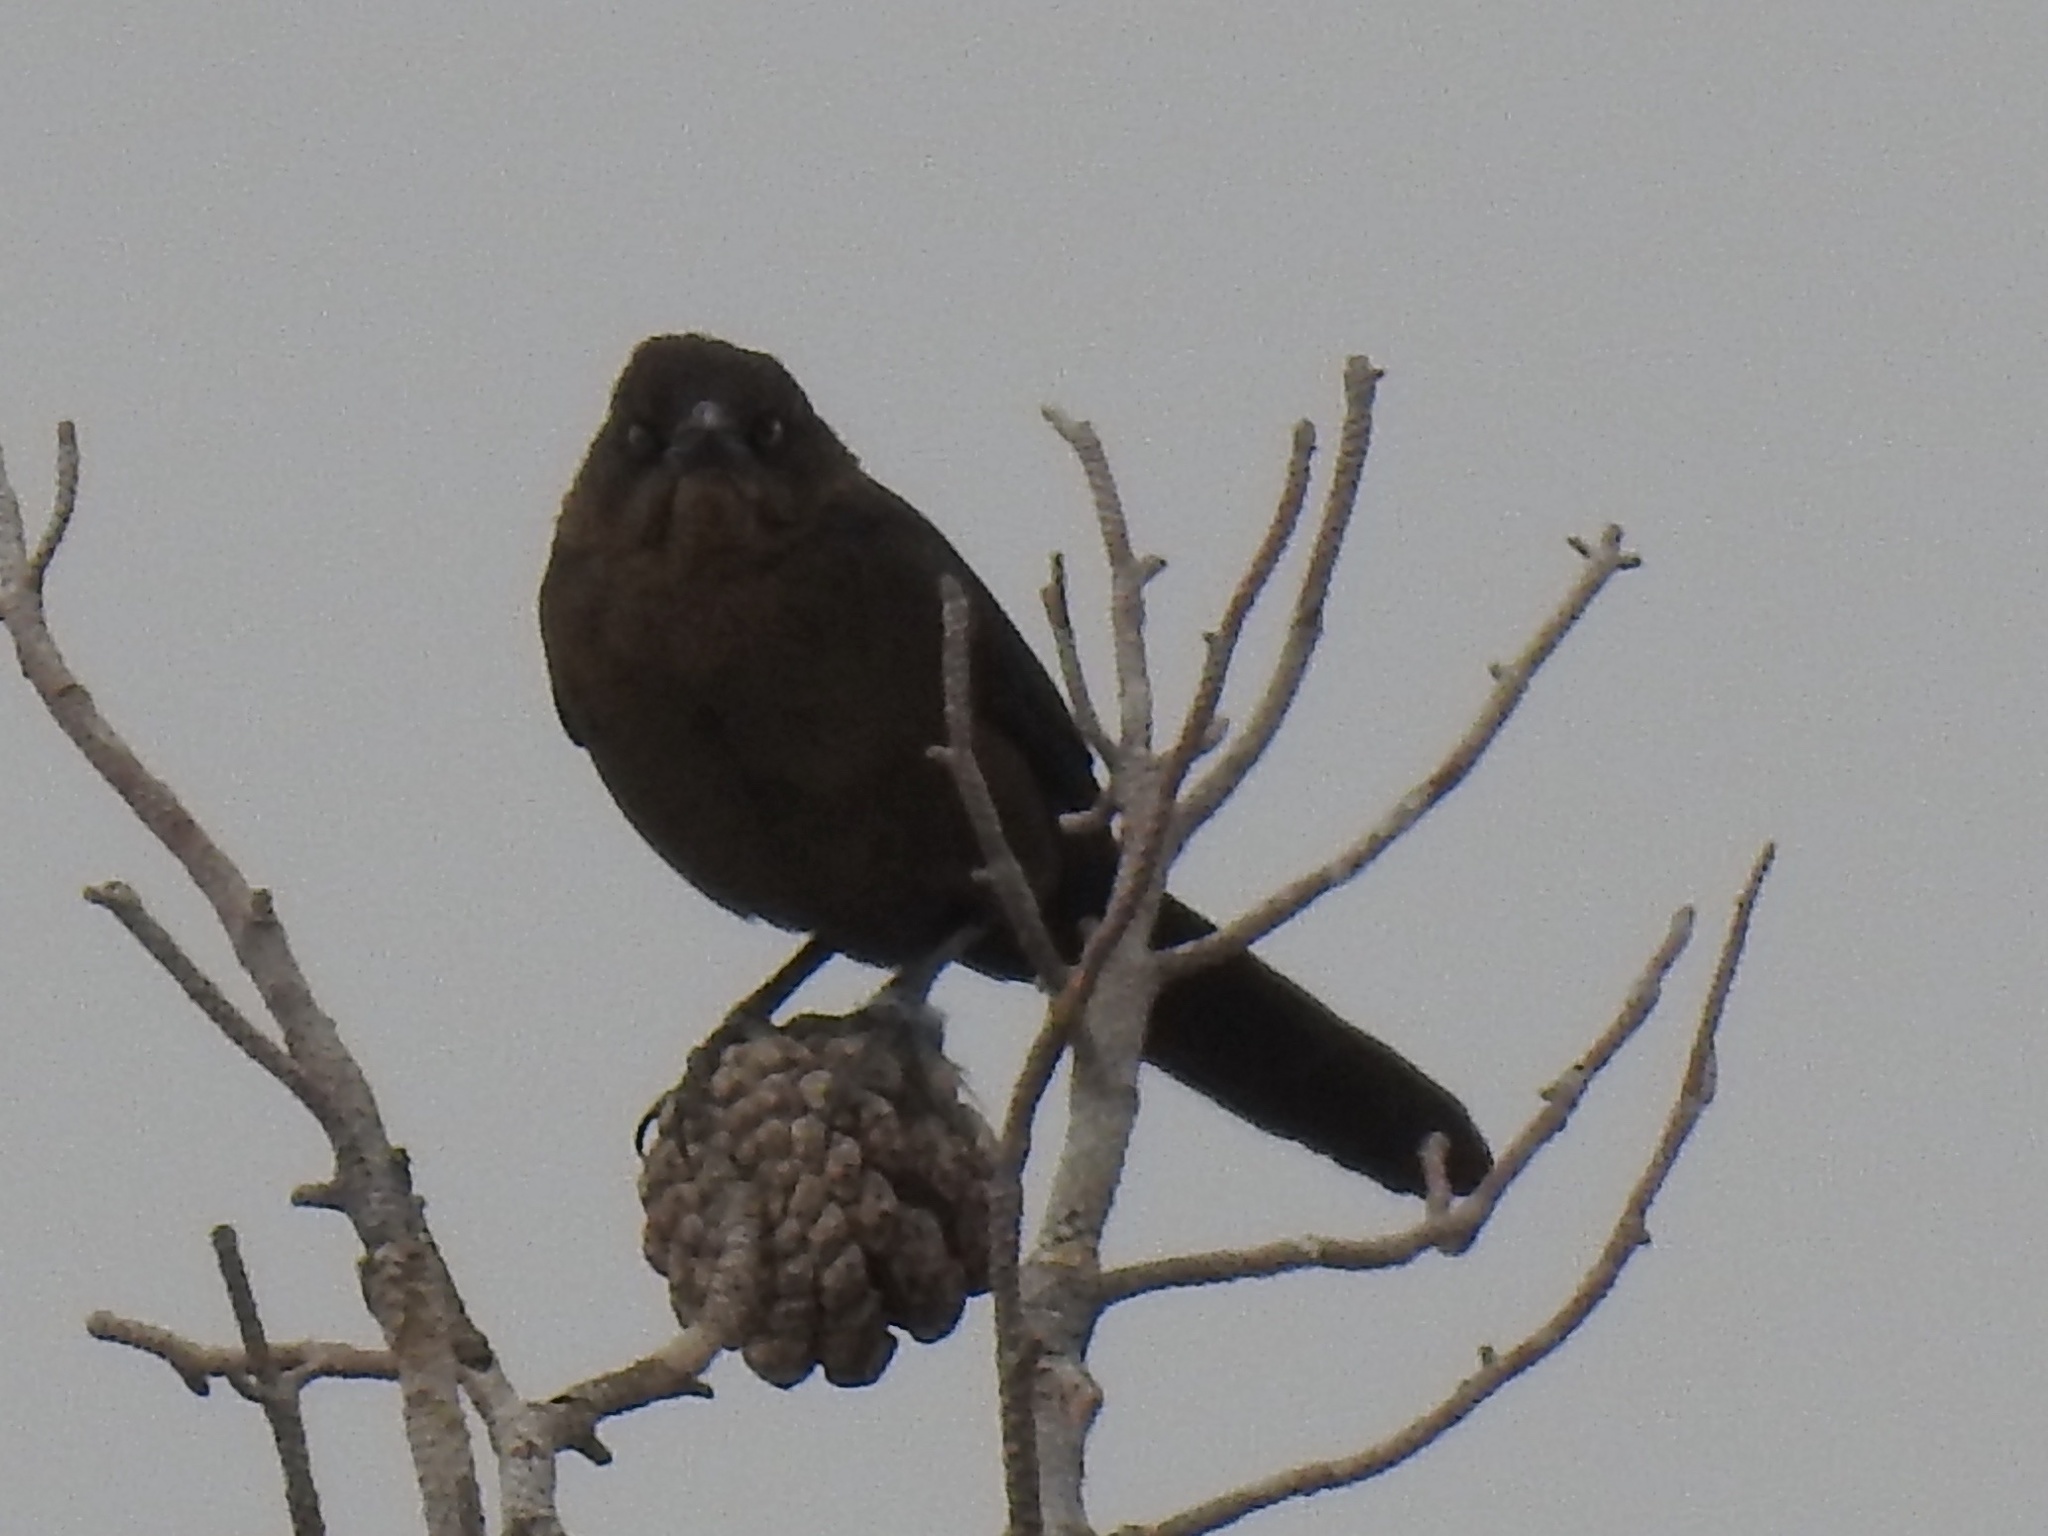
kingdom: Animalia
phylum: Chordata
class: Aves
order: Passeriformes
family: Icteridae
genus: Quiscalus
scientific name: Quiscalus mexicanus
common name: Great-tailed grackle
